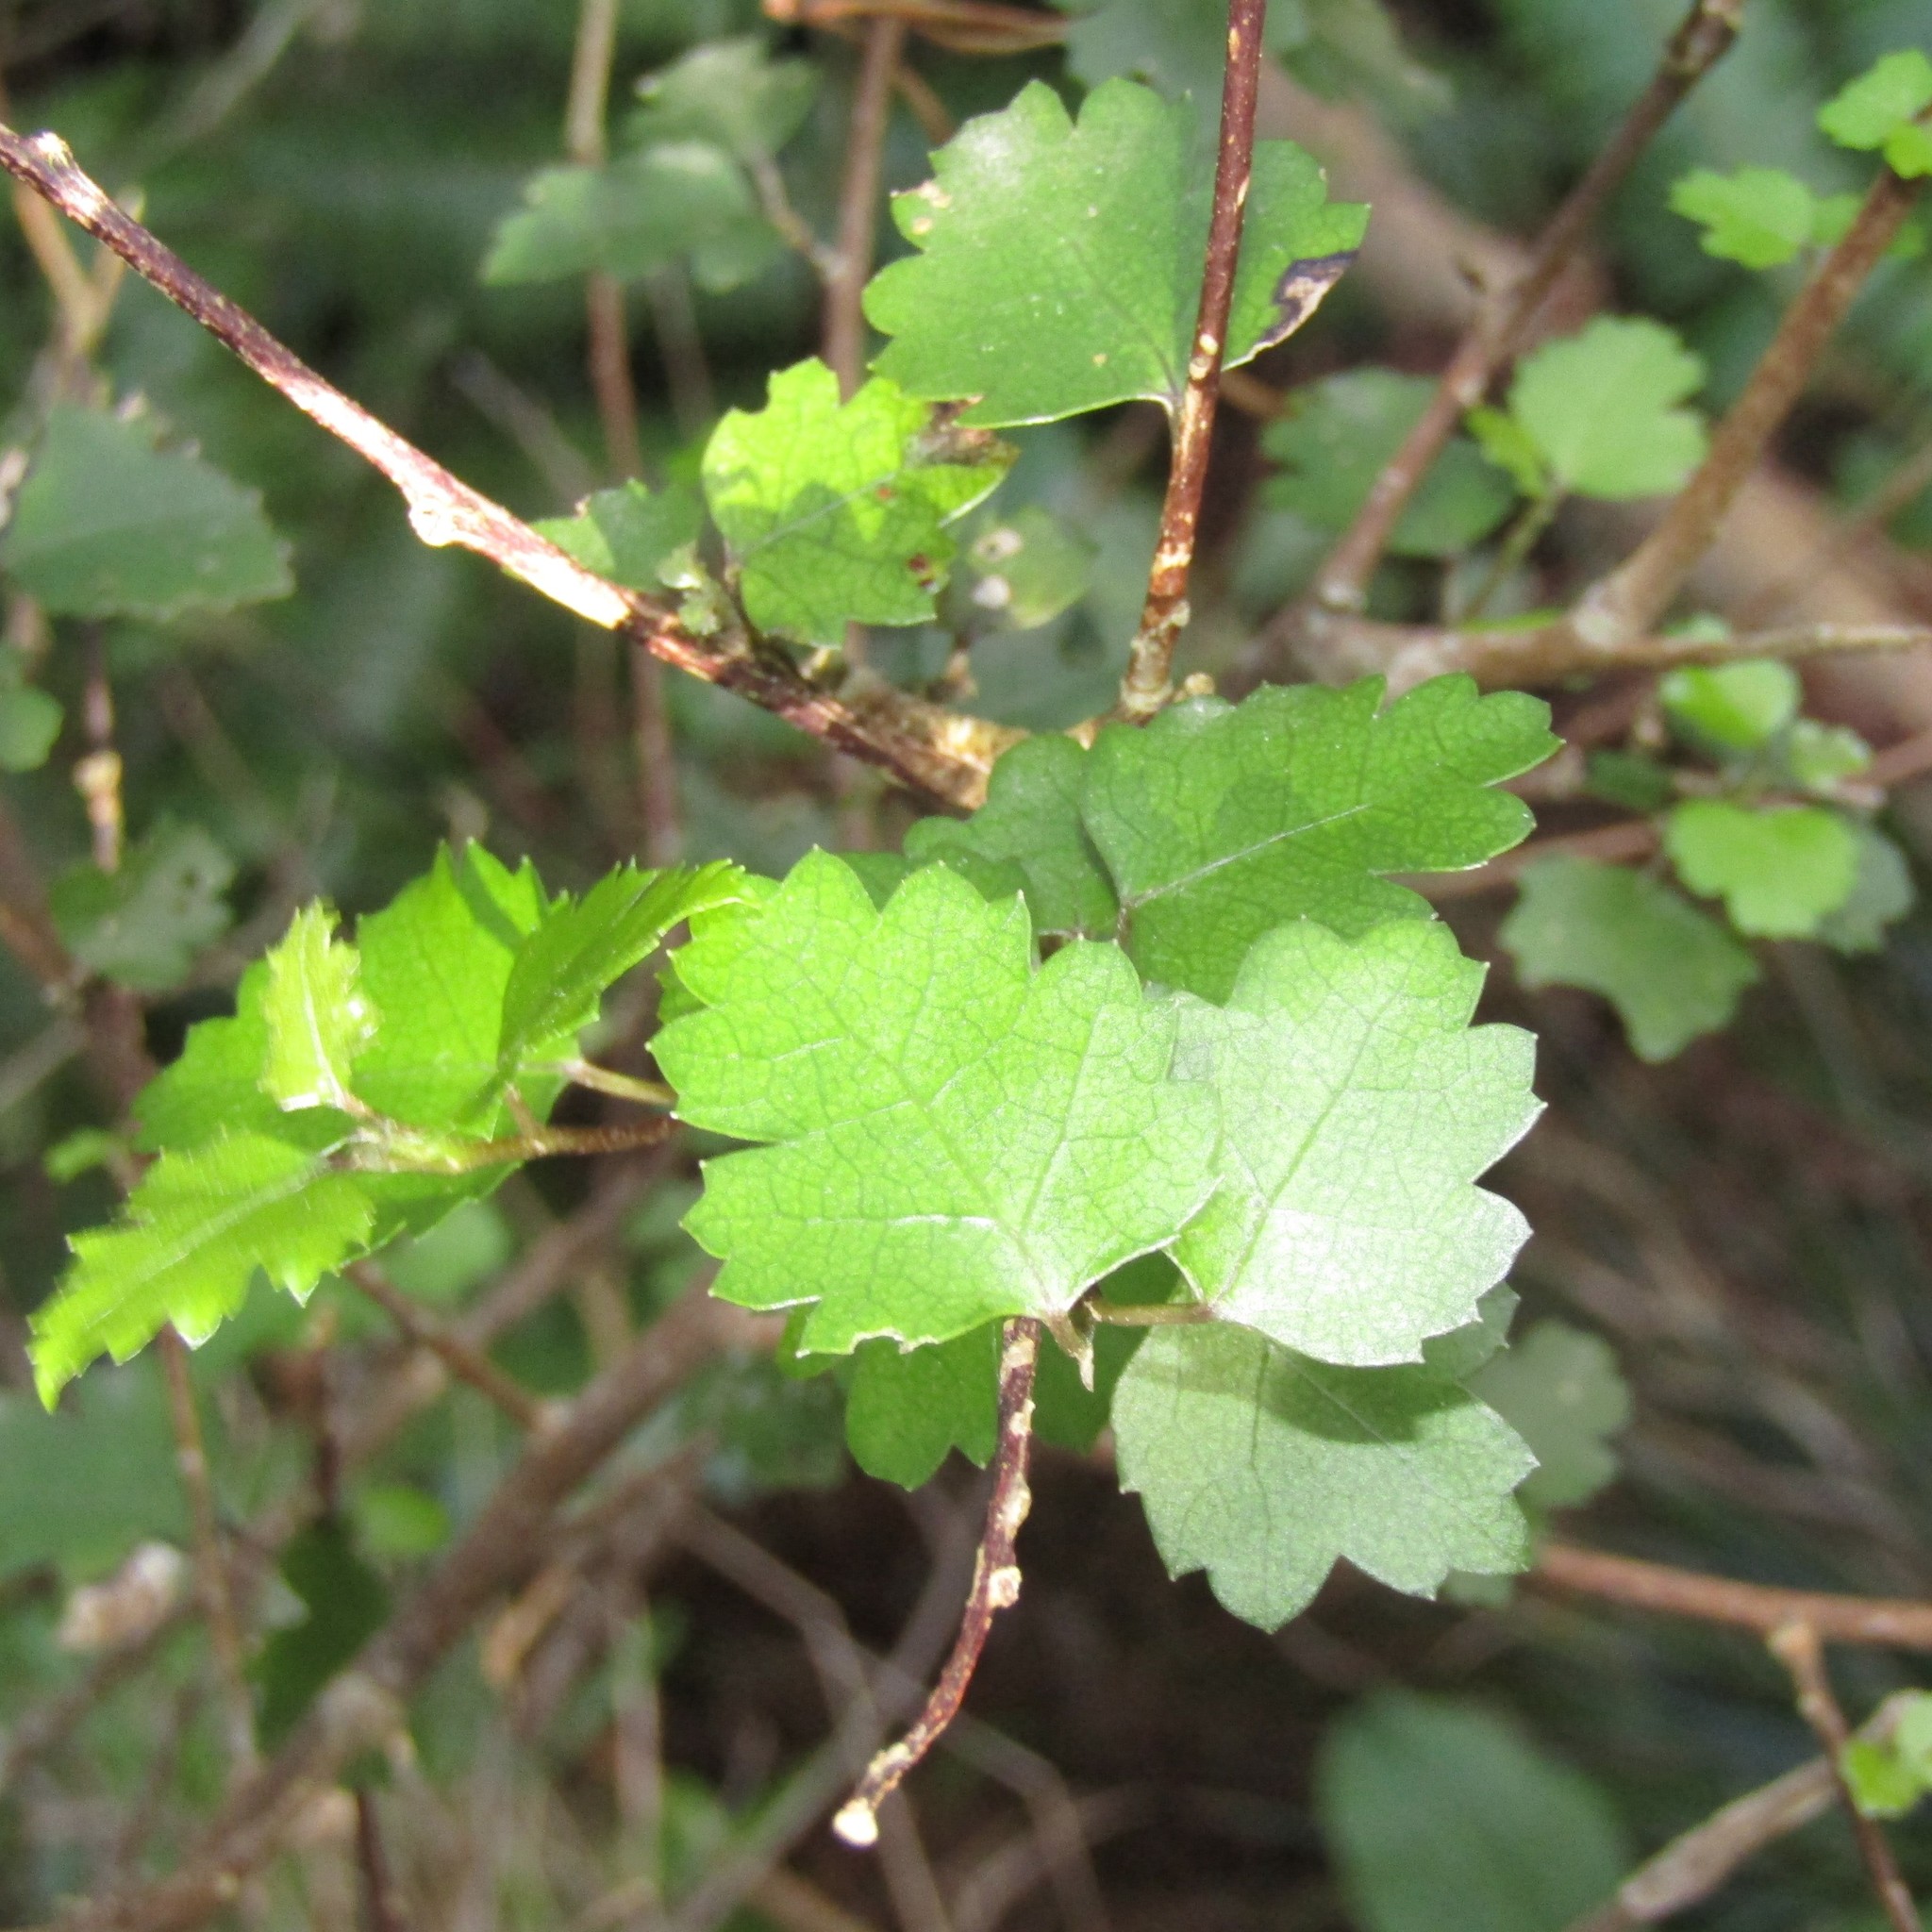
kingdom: Plantae
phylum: Tracheophyta
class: Magnoliopsida
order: Malvales
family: Malvaceae
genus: Hoheria
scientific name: Hoheria sexstylosa
